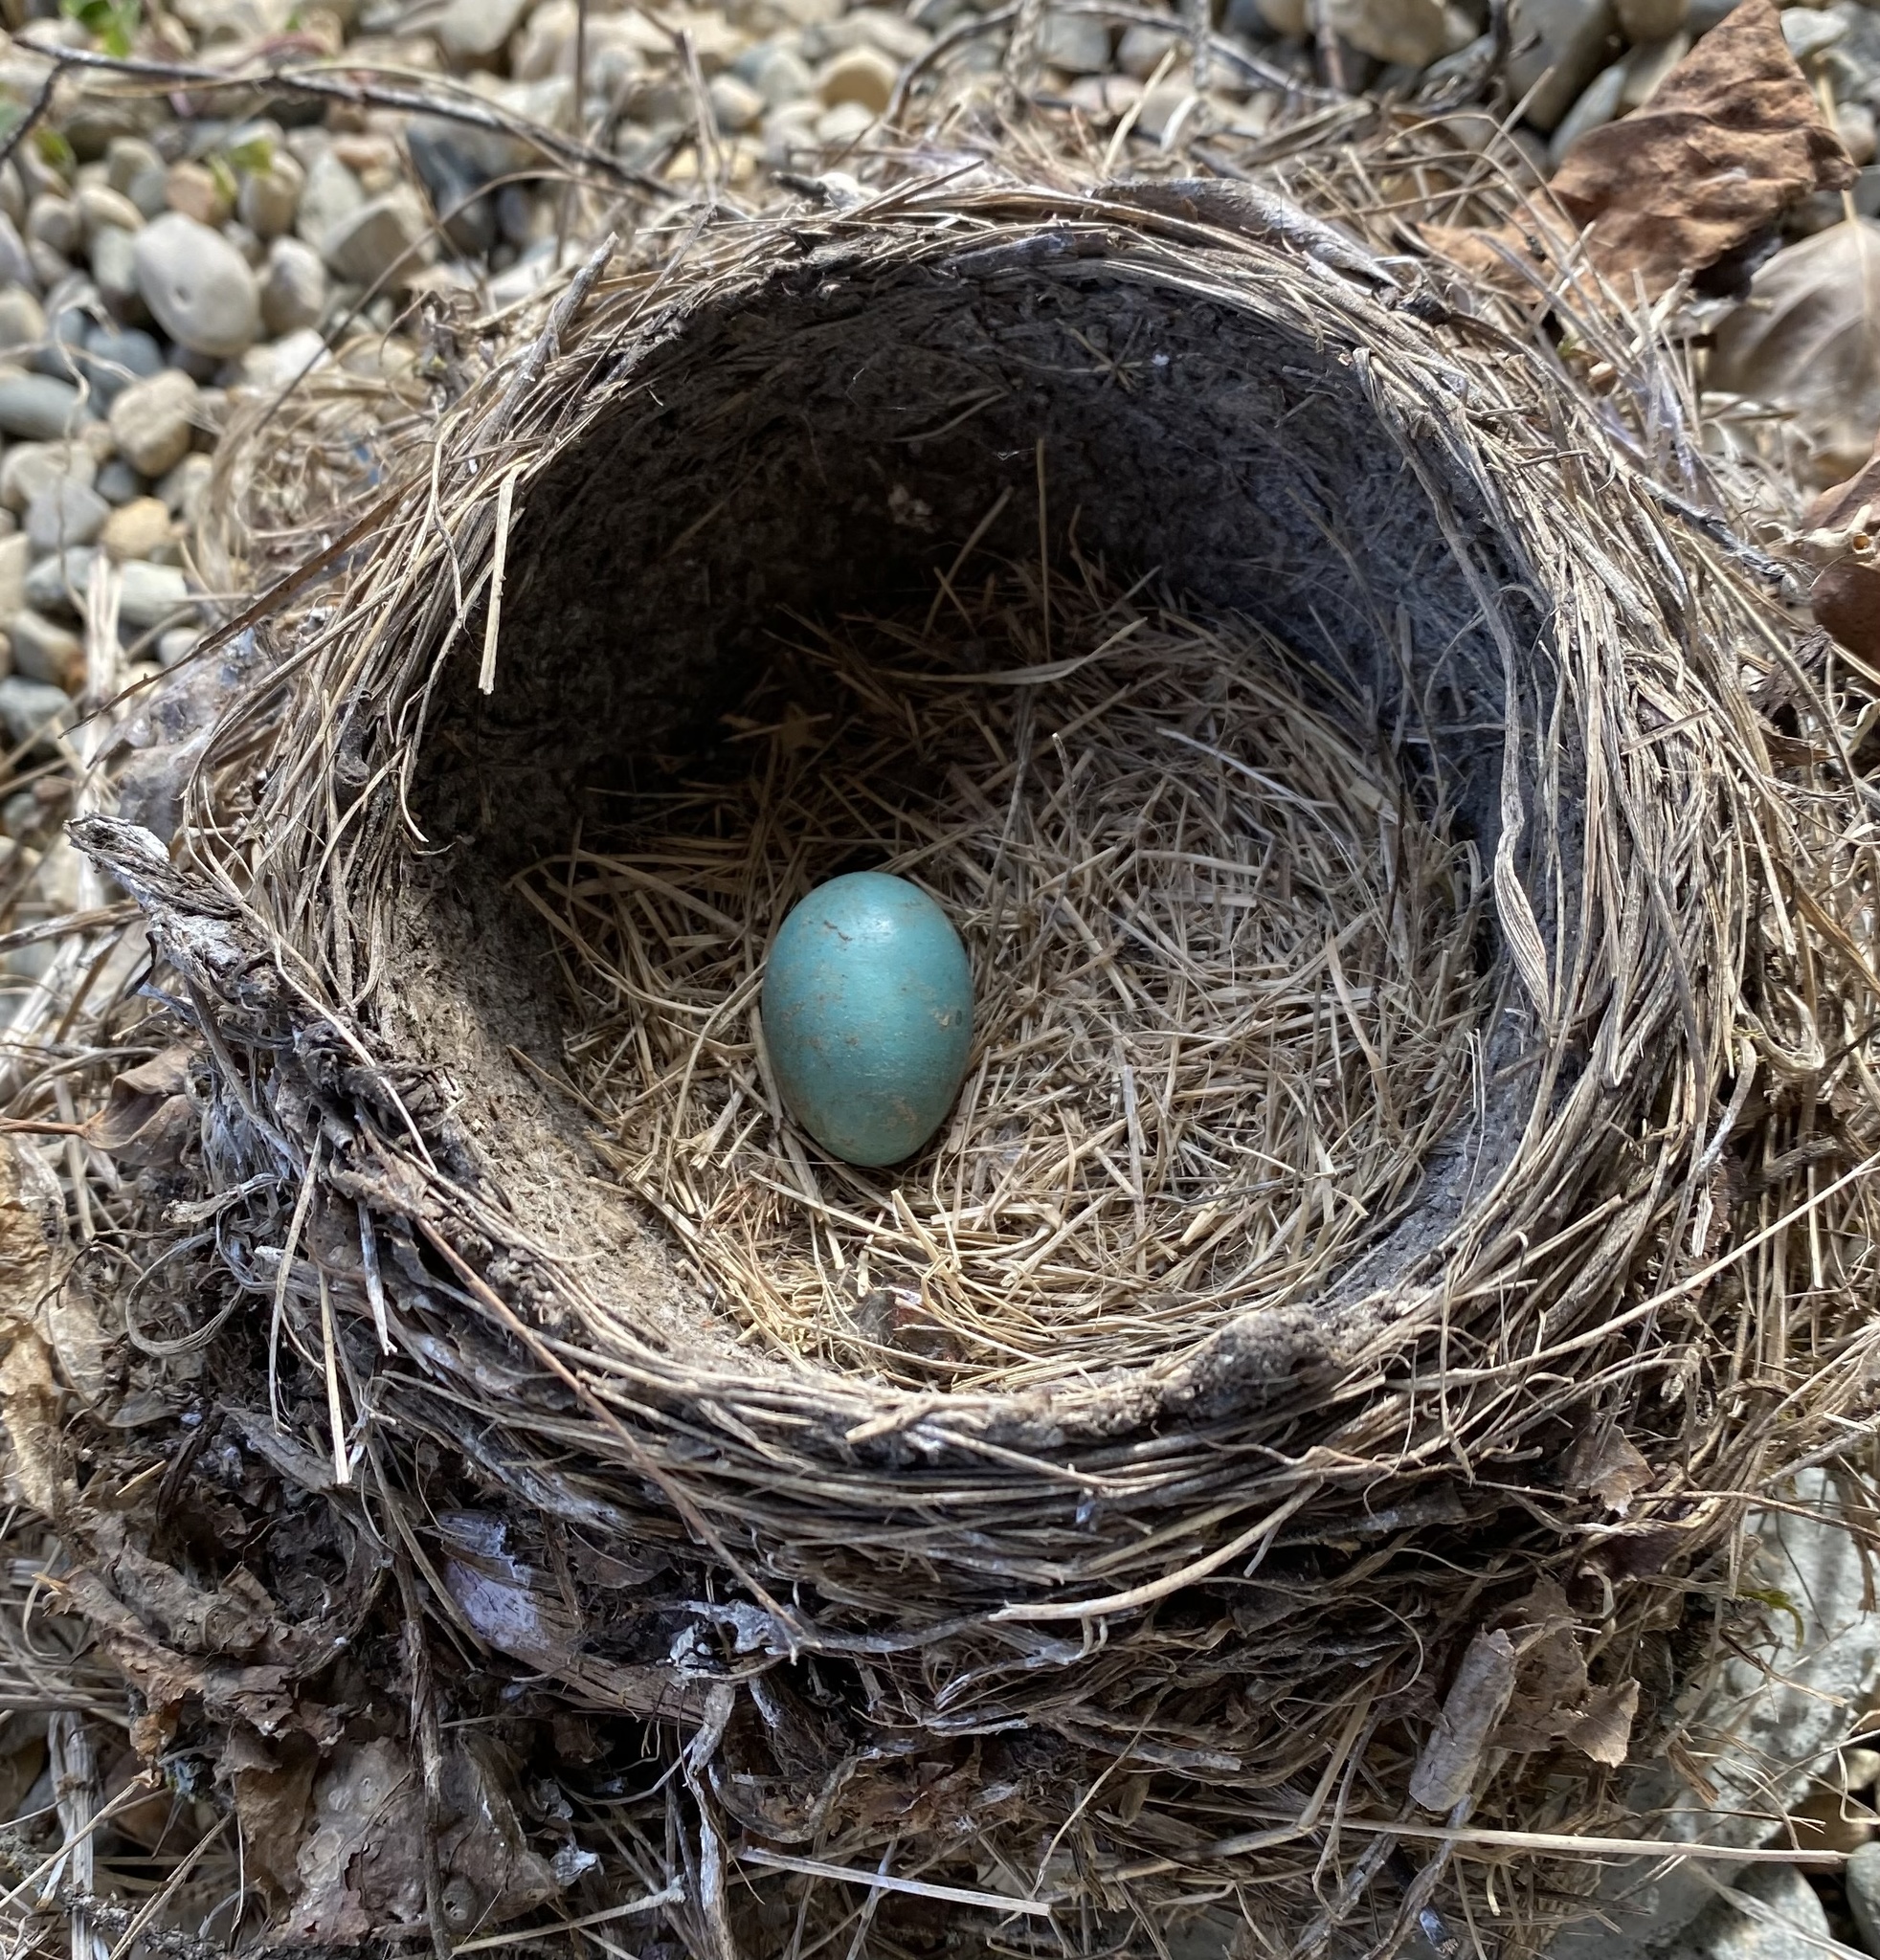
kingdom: Animalia
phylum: Chordata
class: Aves
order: Passeriformes
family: Turdidae
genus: Turdus
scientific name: Turdus migratorius
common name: American robin
